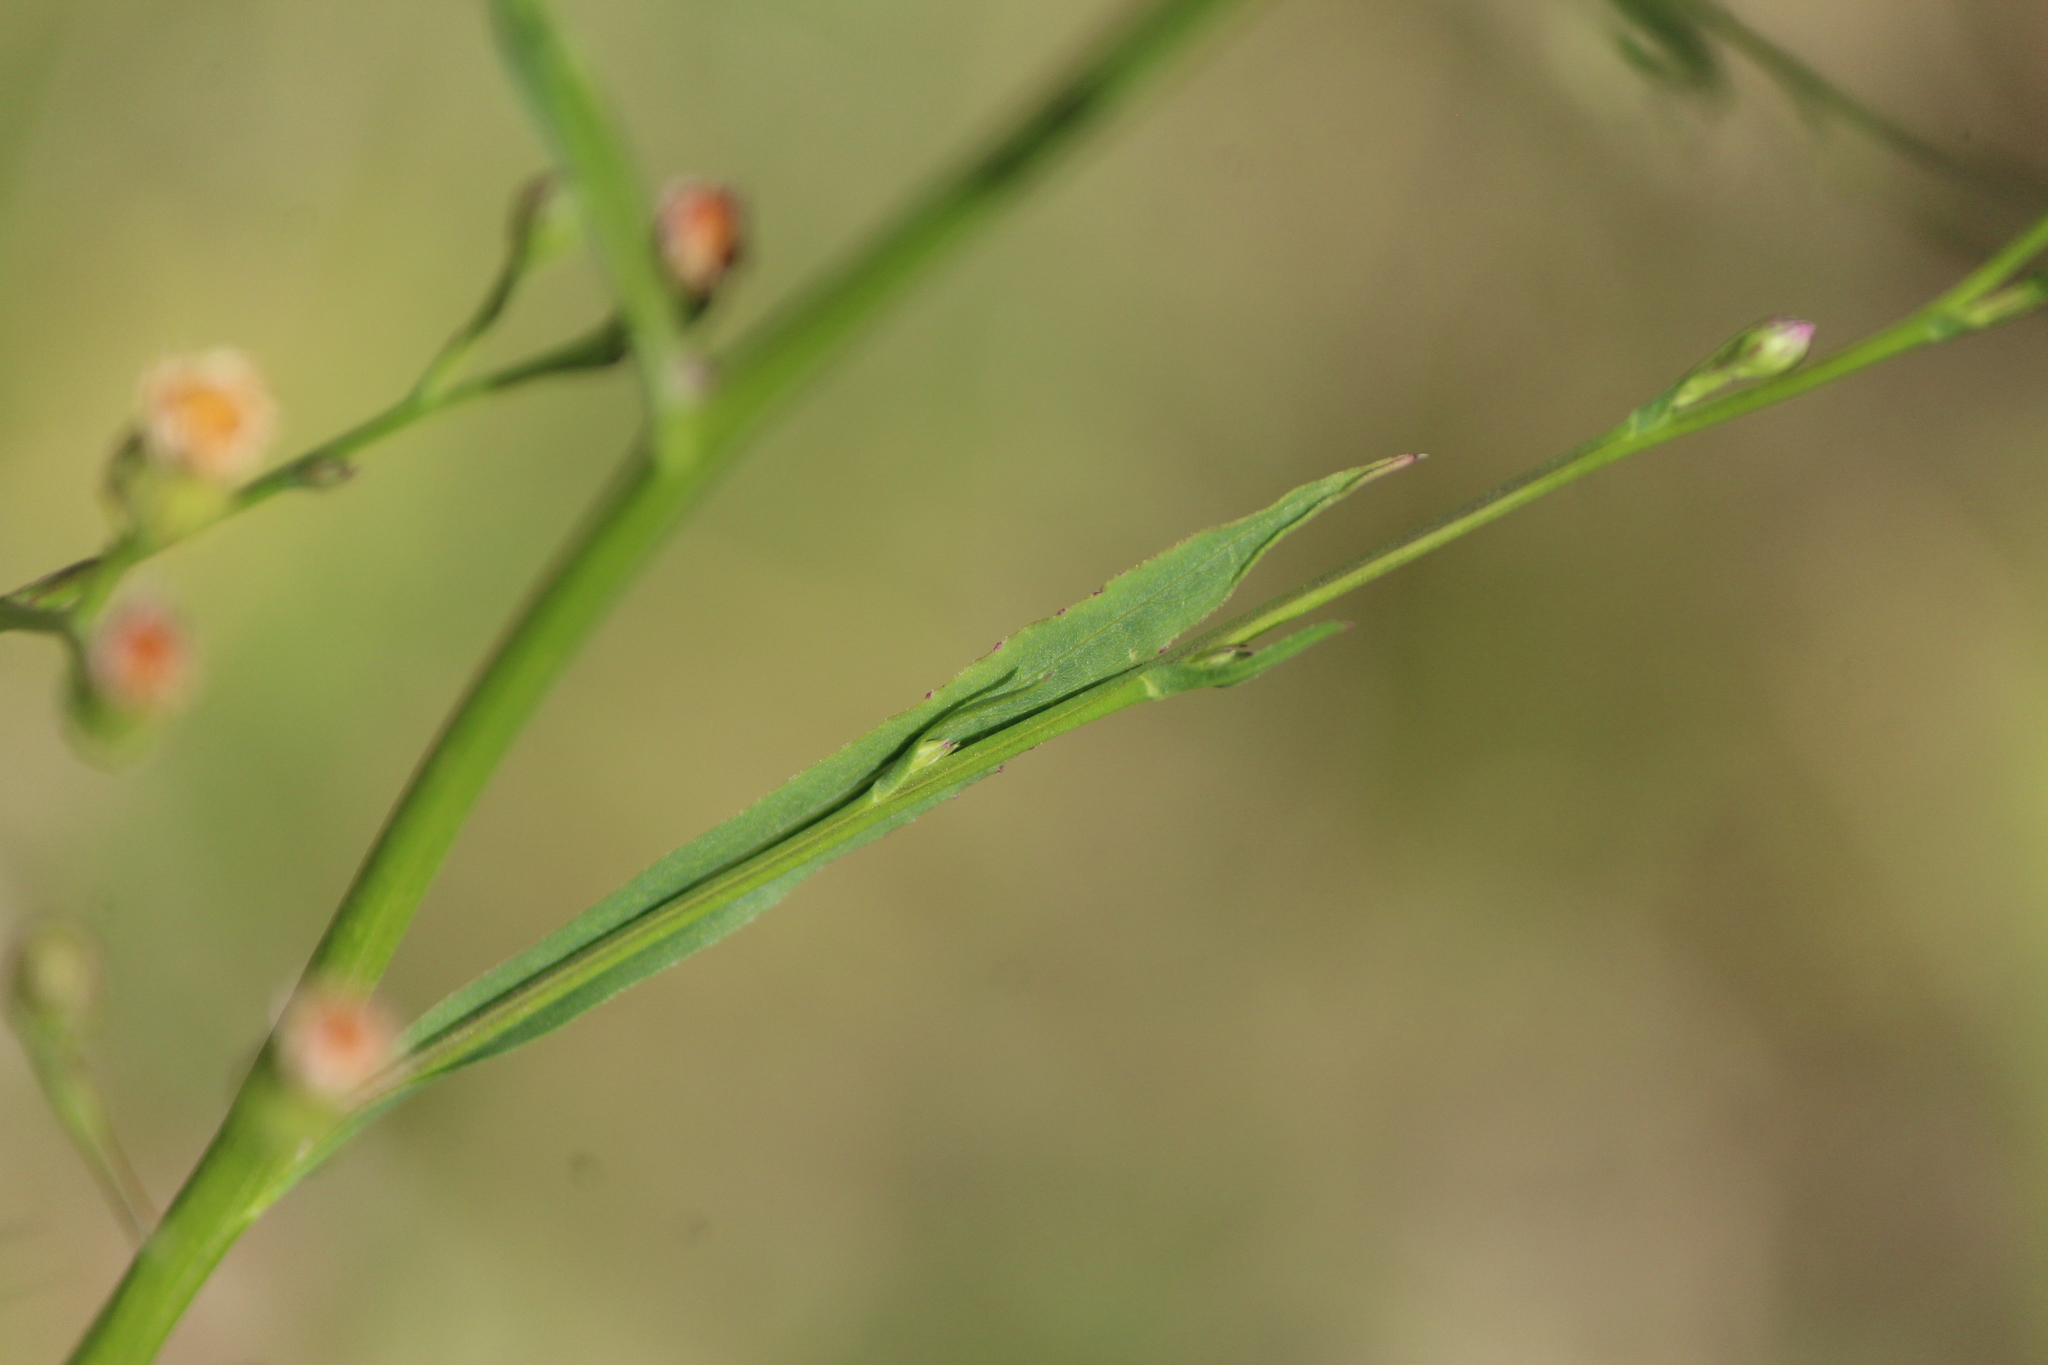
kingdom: Plantae
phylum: Tracheophyta
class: Magnoliopsida
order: Asterales
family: Asteraceae
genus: Symphyotrichum
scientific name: Symphyotrichum subulatum
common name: Annual saltmarsh aster
